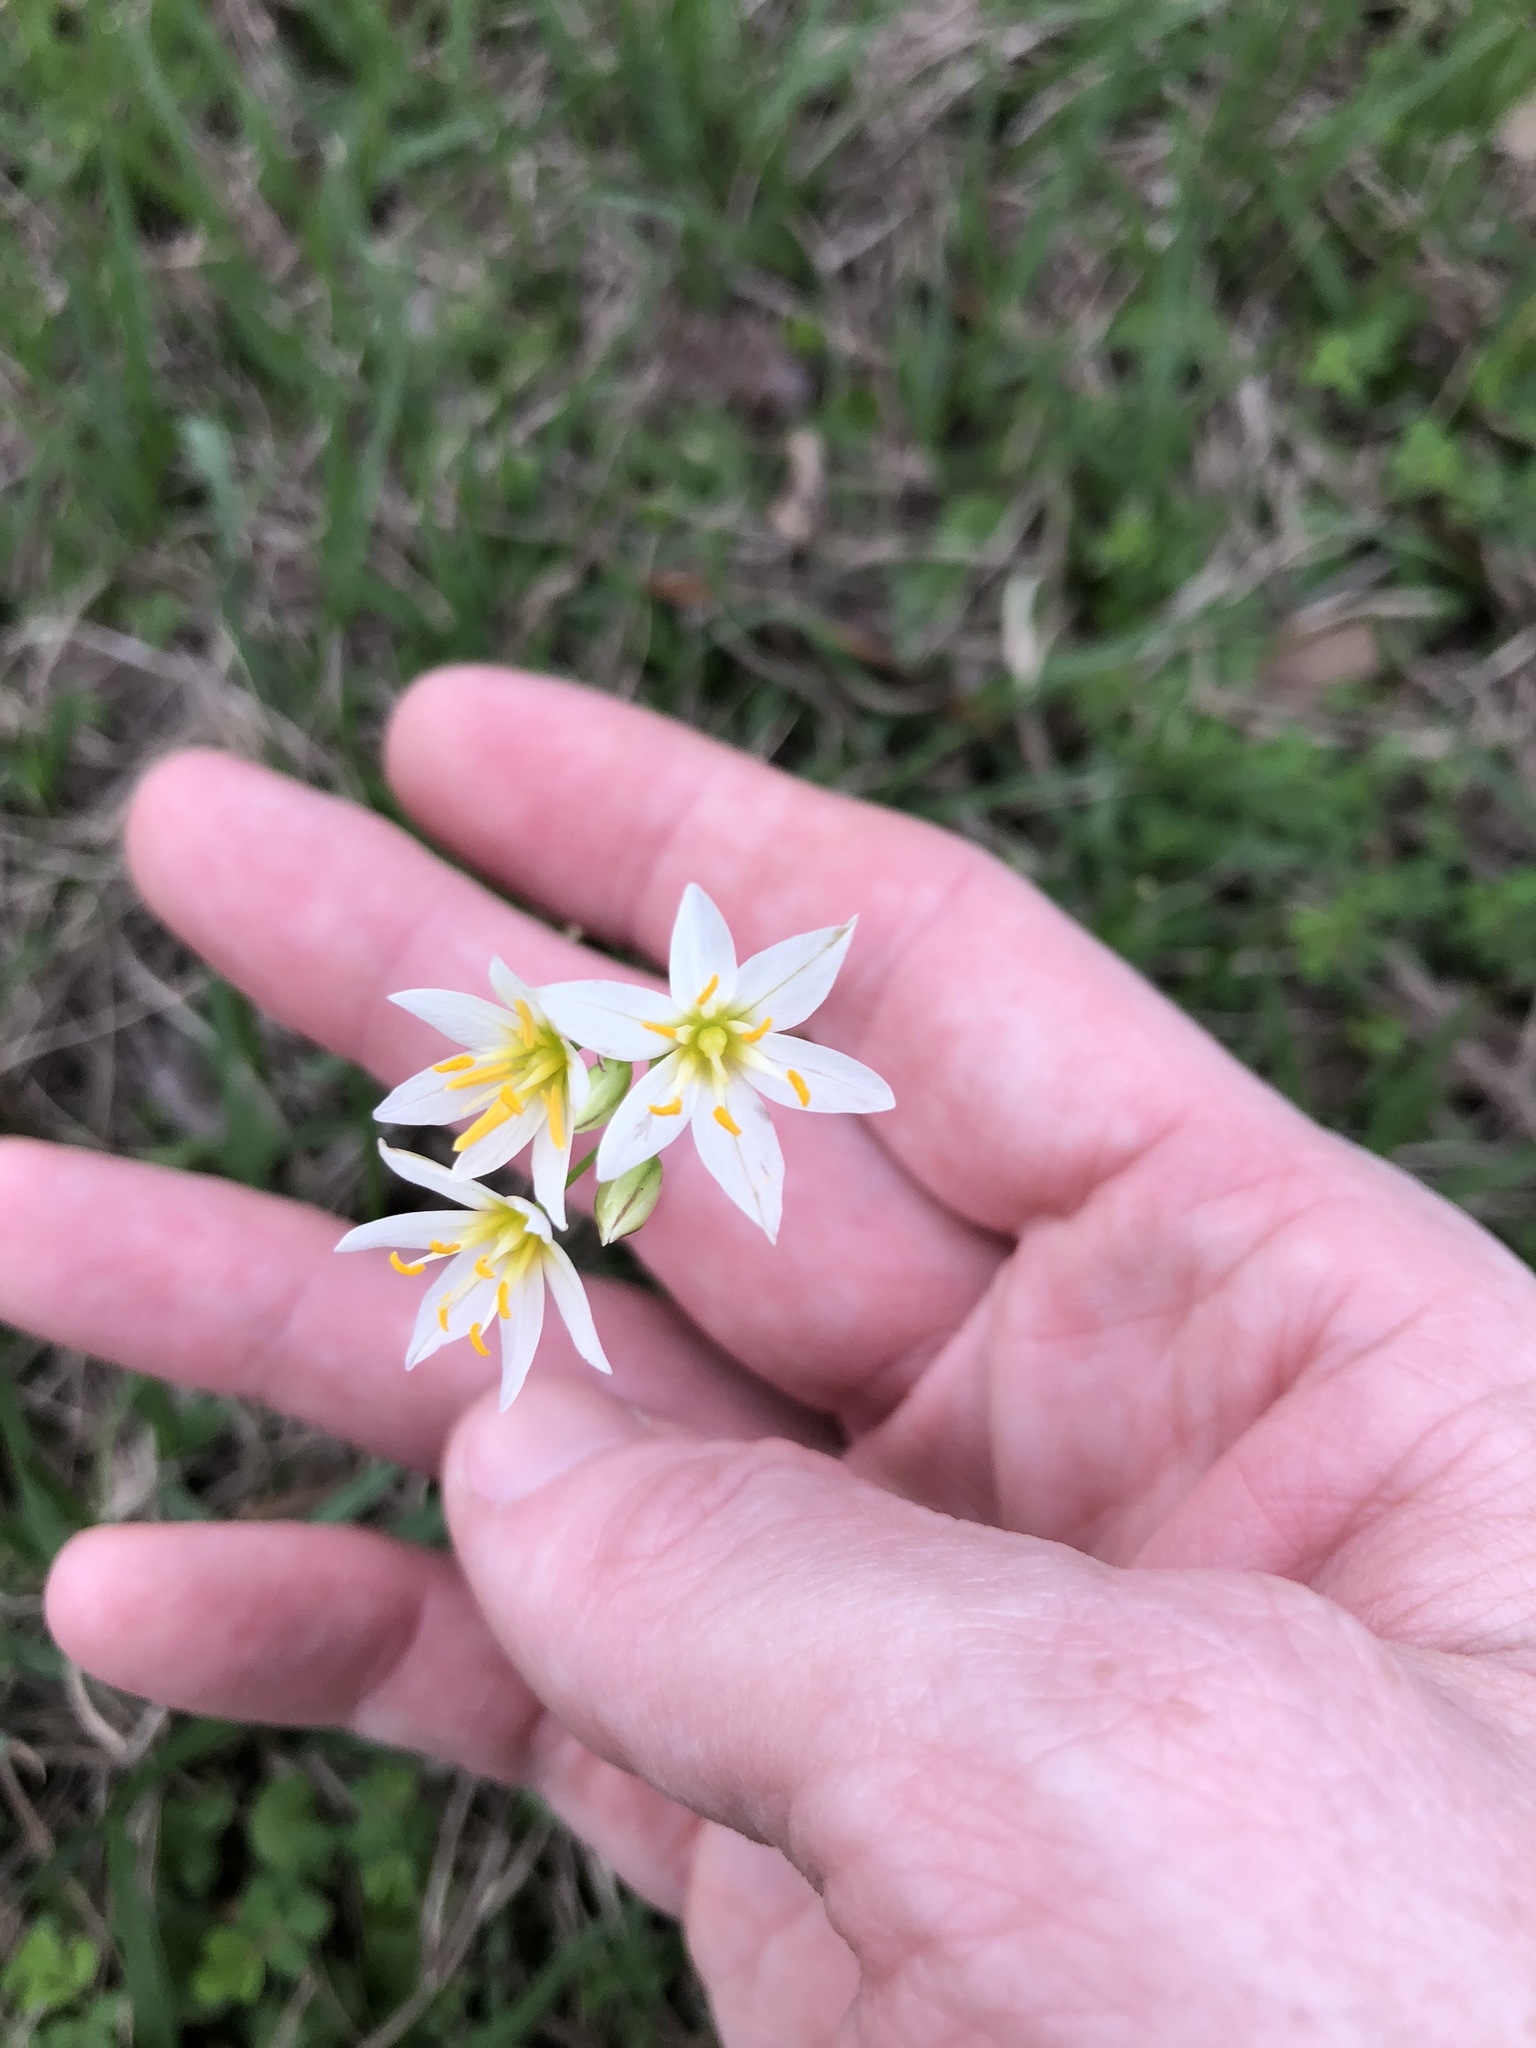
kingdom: Plantae
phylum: Tracheophyta
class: Liliopsida
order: Asparagales
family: Amaryllidaceae
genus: Nothoscordum
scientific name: Nothoscordum bivalve
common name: Crow-poison
